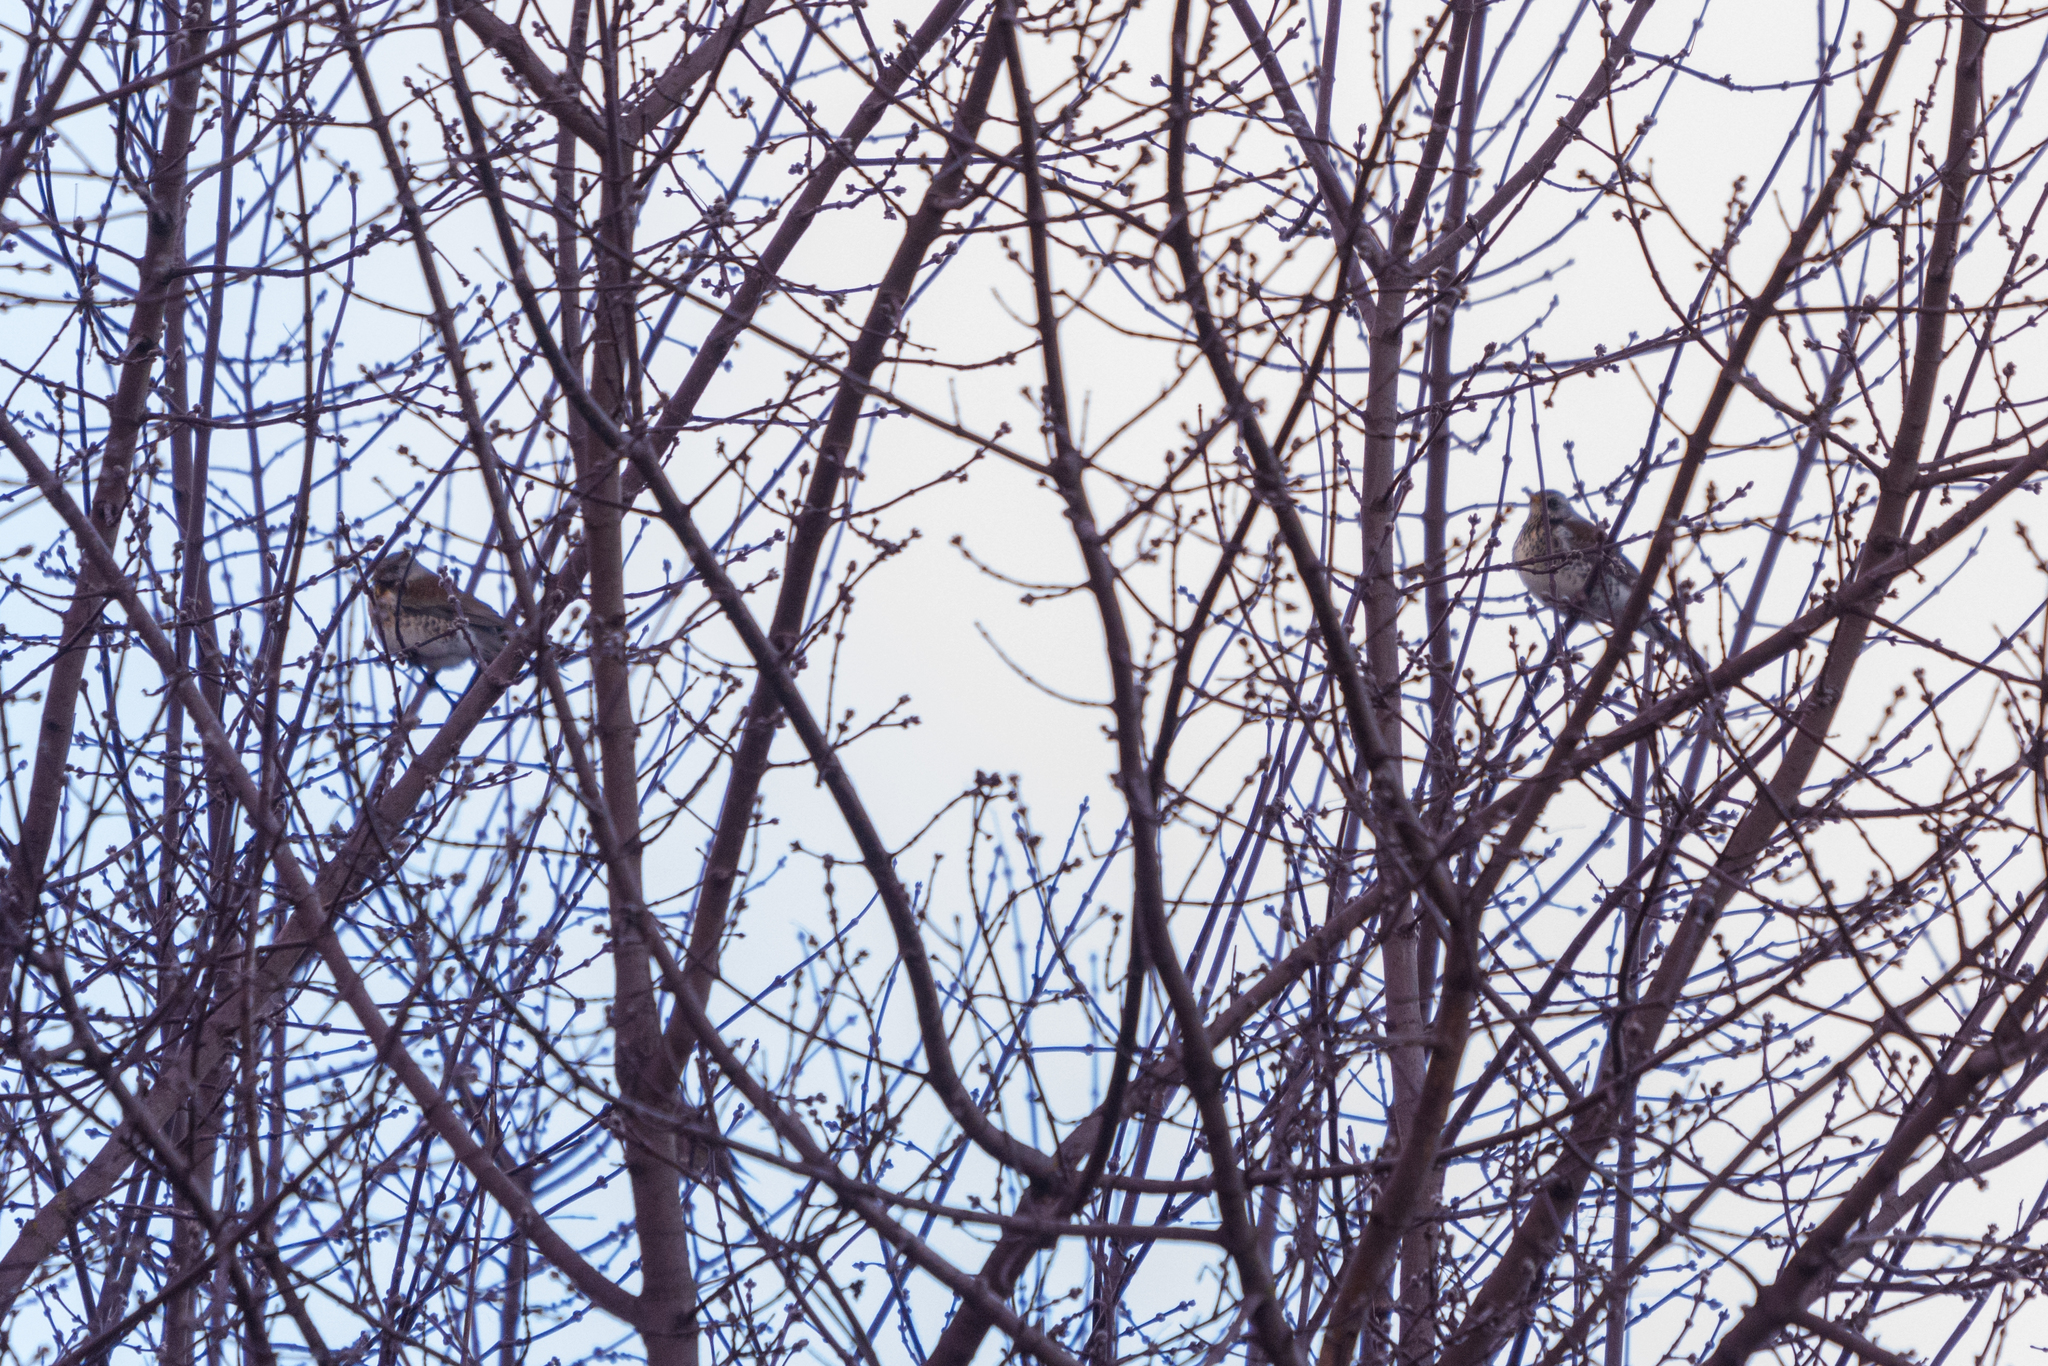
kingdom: Animalia
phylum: Chordata
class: Aves
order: Passeriformes
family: Turdidae
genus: Turdus
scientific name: Turdus pilaris
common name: Fieldfare
